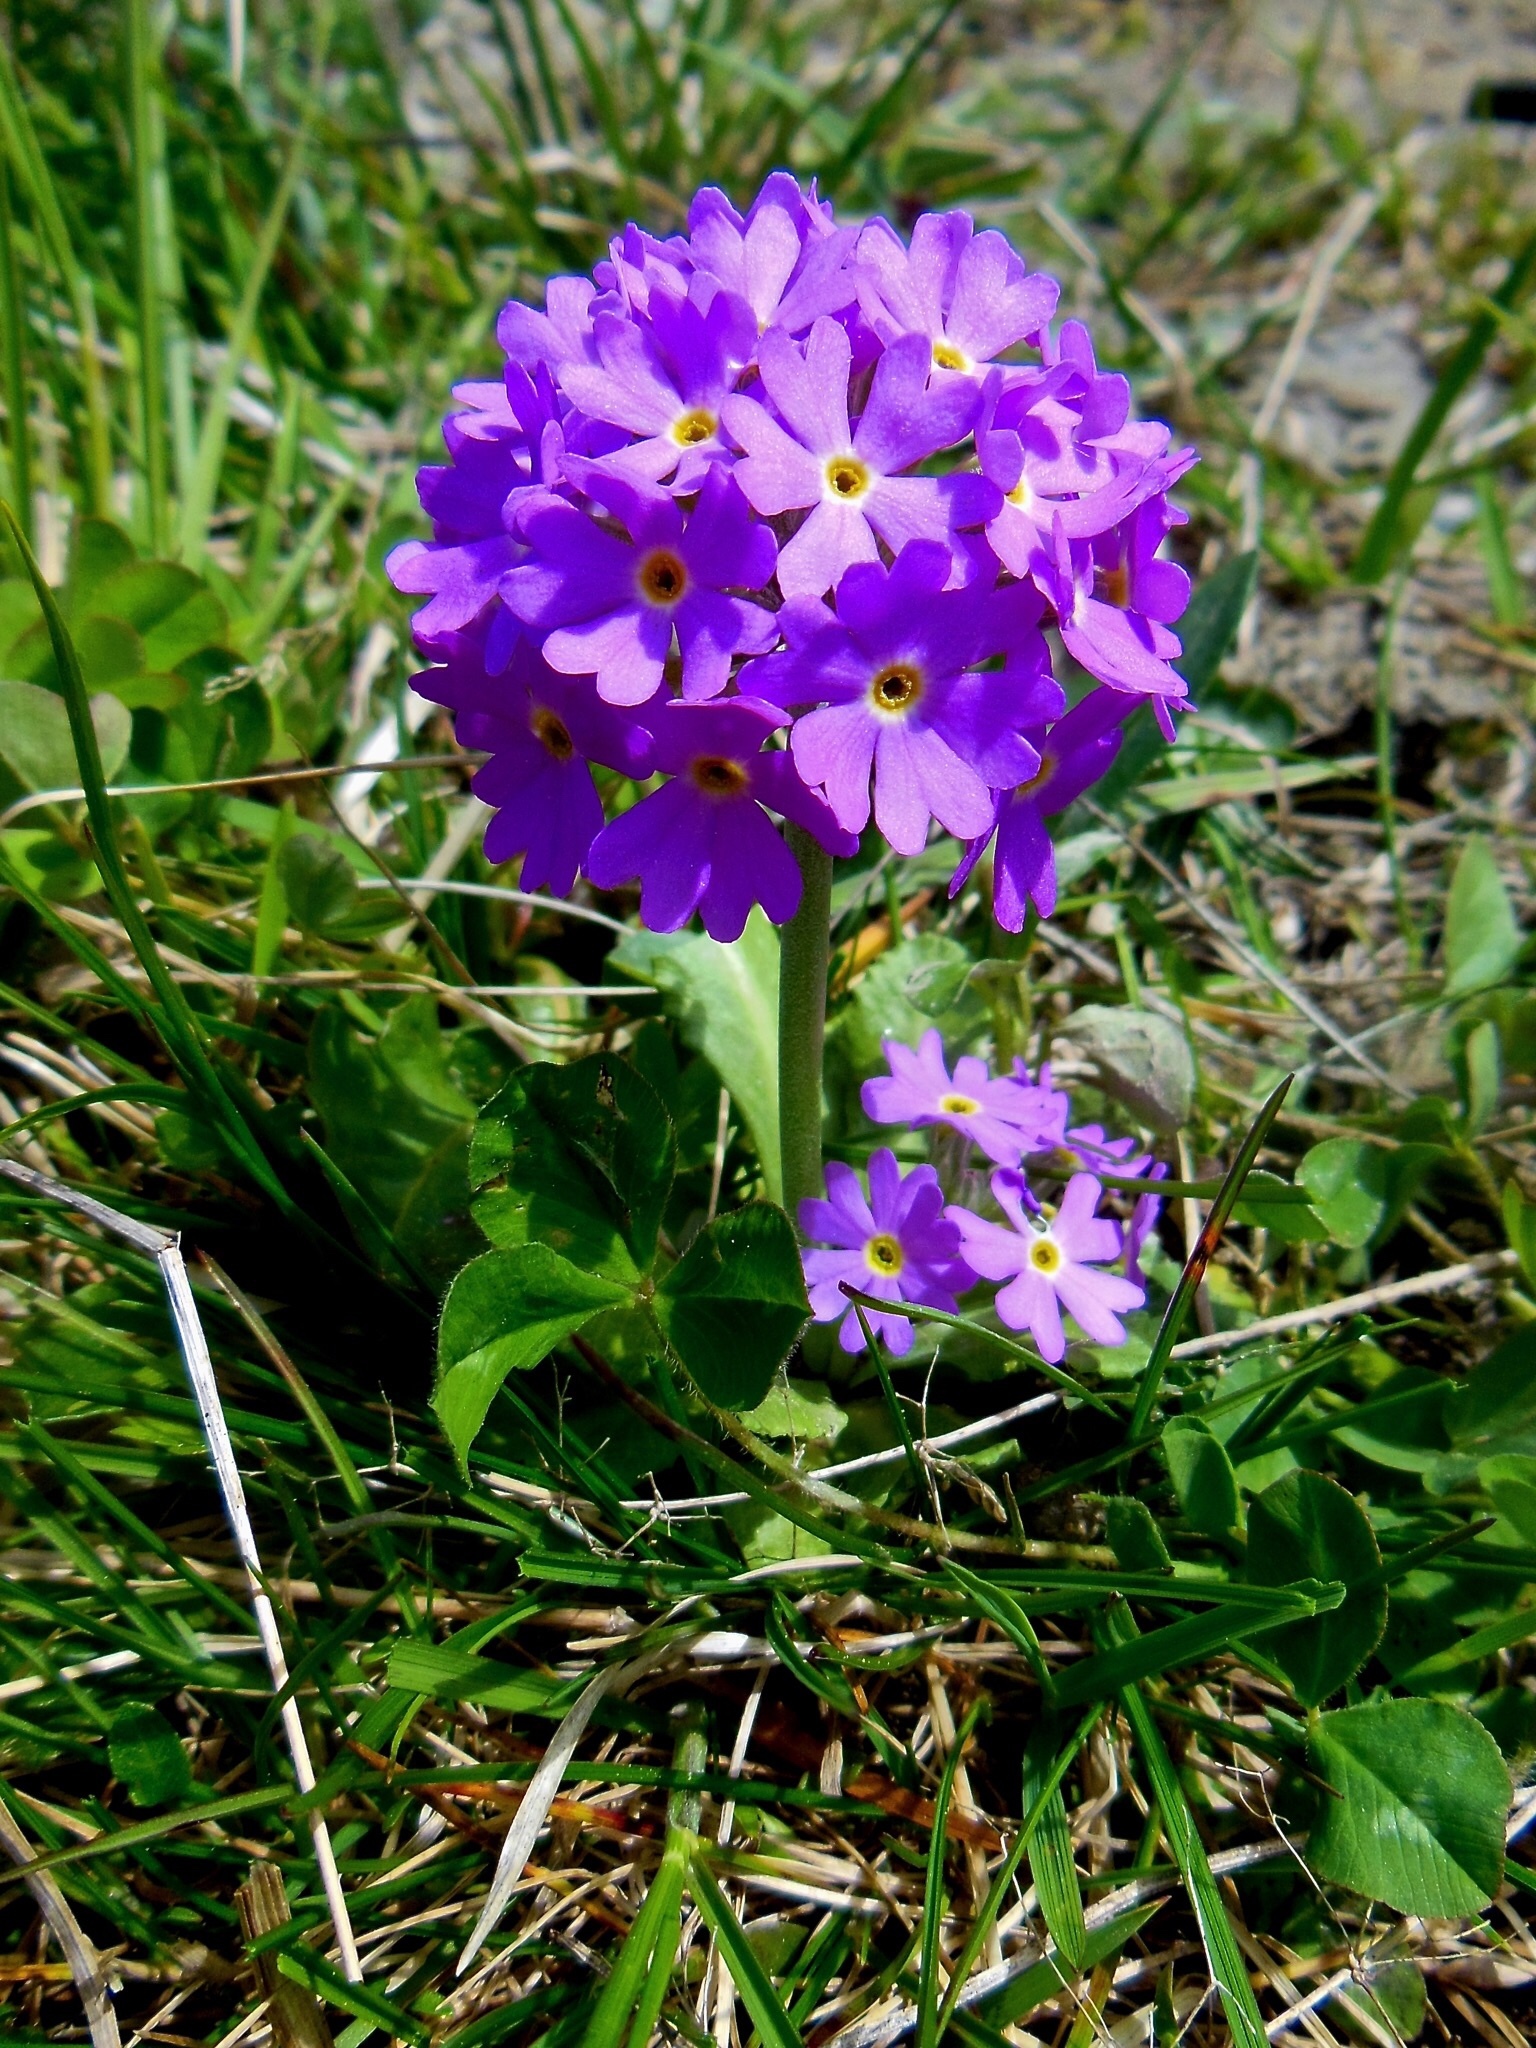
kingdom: Plantae
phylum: Tracheophyta
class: Magnoliopsida
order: Ericales
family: Primulaceae
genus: Primula
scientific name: Primula farinosa
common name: Bird's-eye primrose
